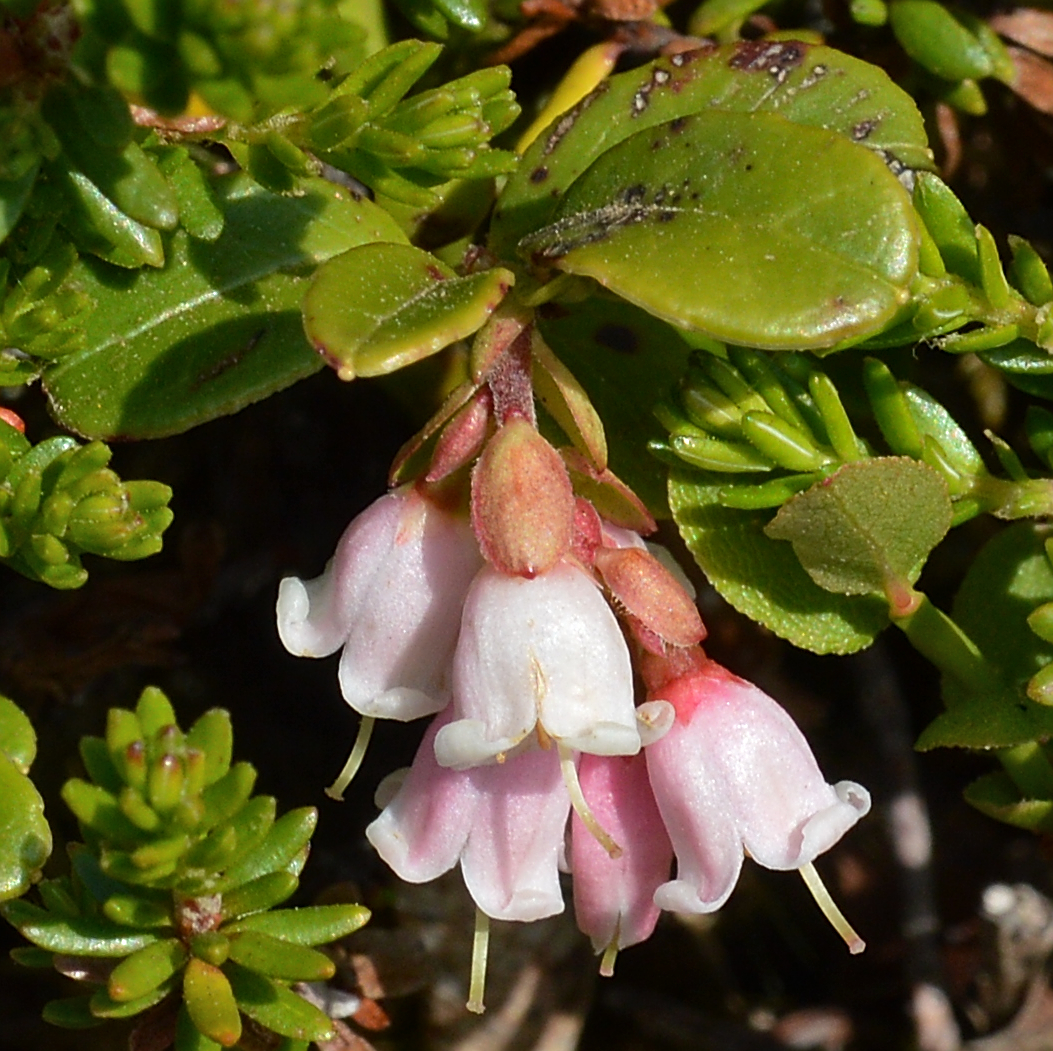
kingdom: Plantae
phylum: Tracheophyta
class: Magnoliopsida
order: Ericales
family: Ericaceae
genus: Vaccinium
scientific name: Vaccinium vitis-idaea
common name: Cowberry
